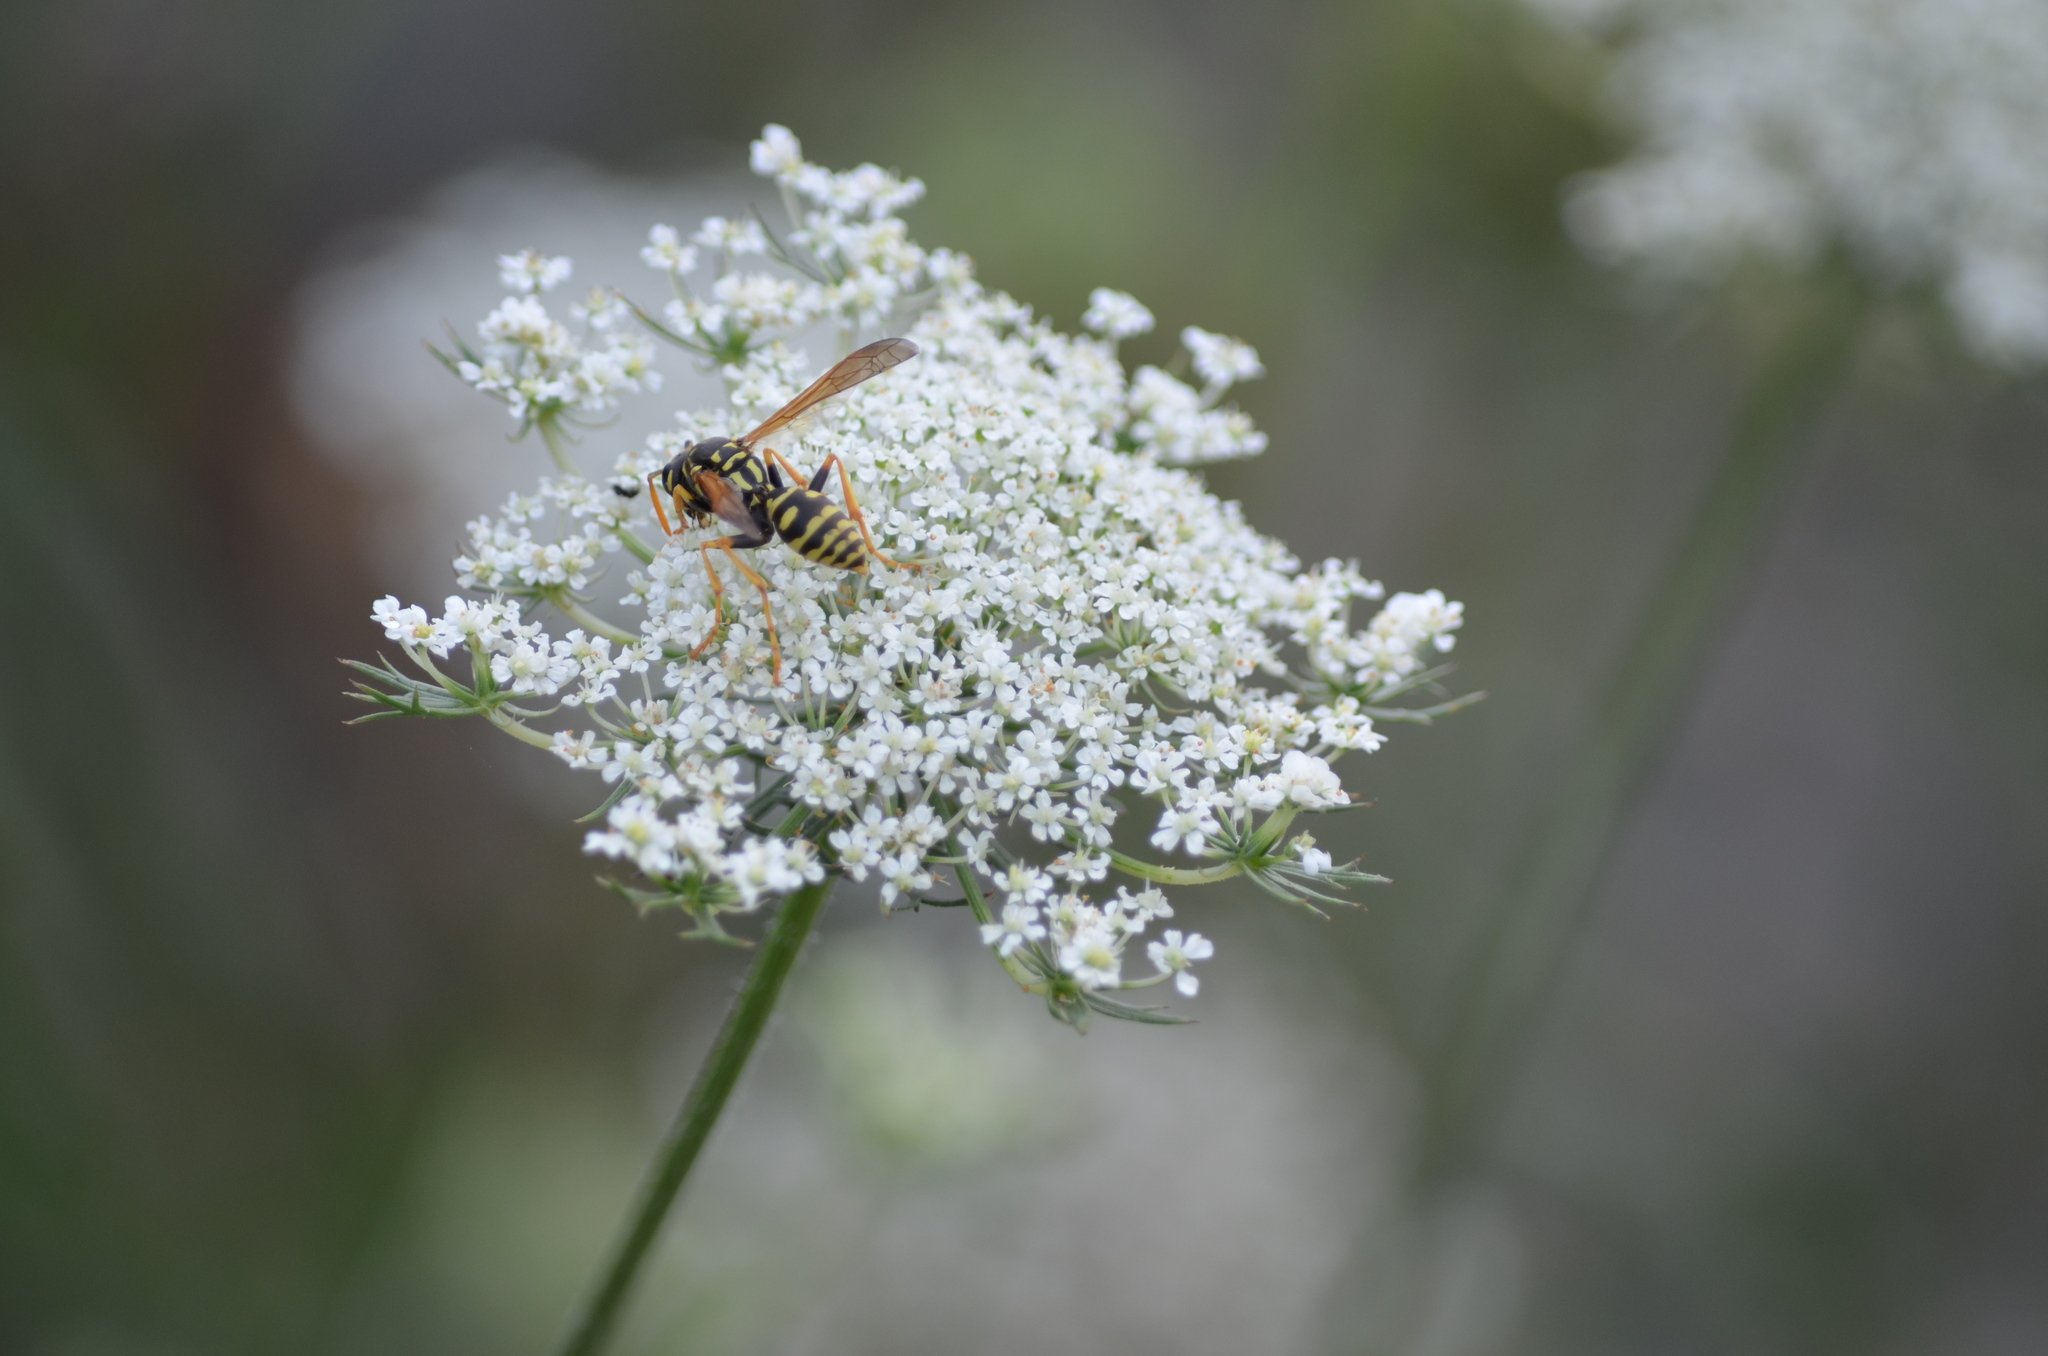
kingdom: Animalia
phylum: Arthropoda
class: Insecta
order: Hymenoptera
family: Eumenidae
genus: Polistes
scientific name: Polistes dominula
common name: Paper wasp
